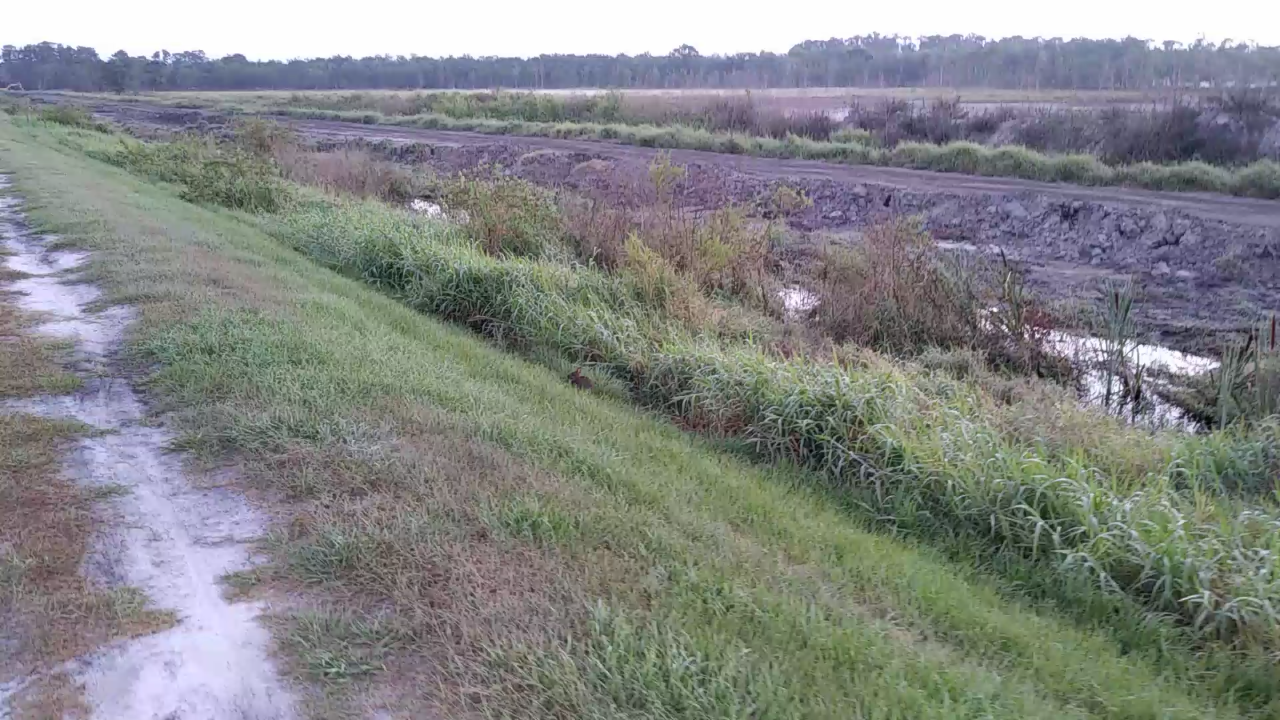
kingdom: Animalia
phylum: Chordata
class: Mammalia
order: Lagomorpha
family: Leporidae
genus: Sylvilagus
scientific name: Sylvilagus palustris
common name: Marsh rabbit
